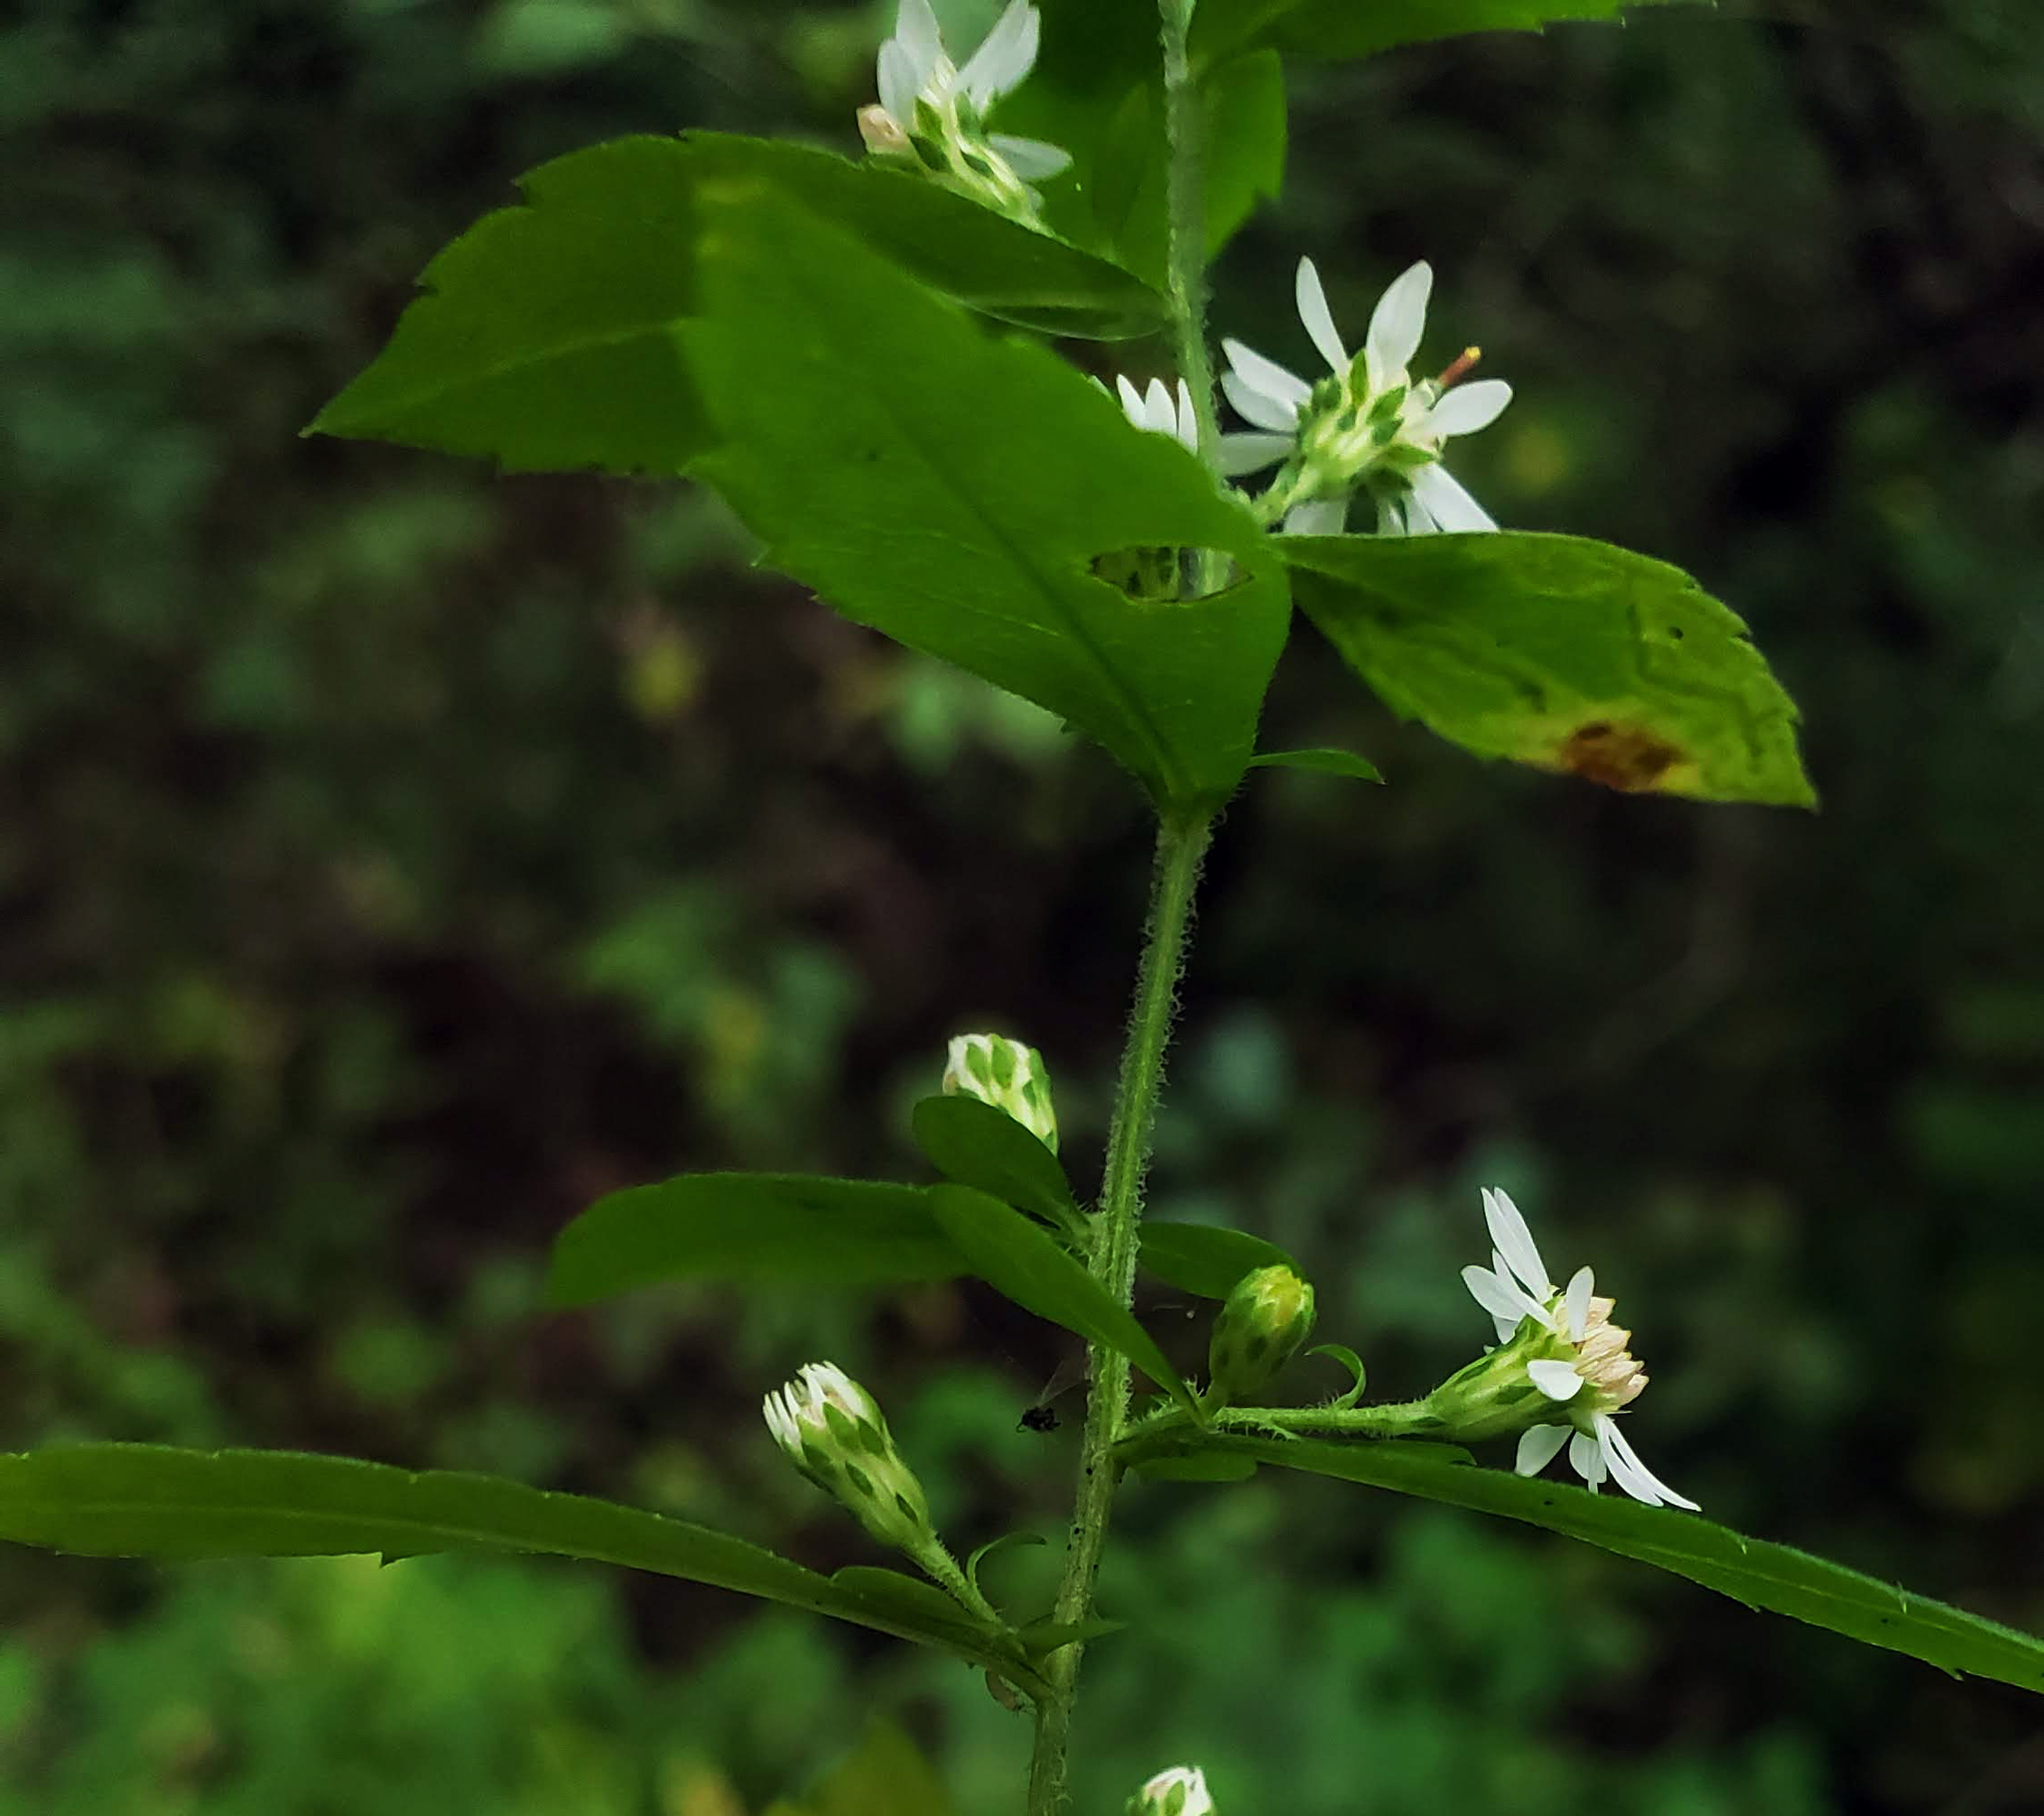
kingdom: Plantae
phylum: Tracheophyta
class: Magnoliopsida
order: Asterales
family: Asteraceae
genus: Symphyotrichum
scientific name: Symphyotrichum lateriflorum
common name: Calico aster
